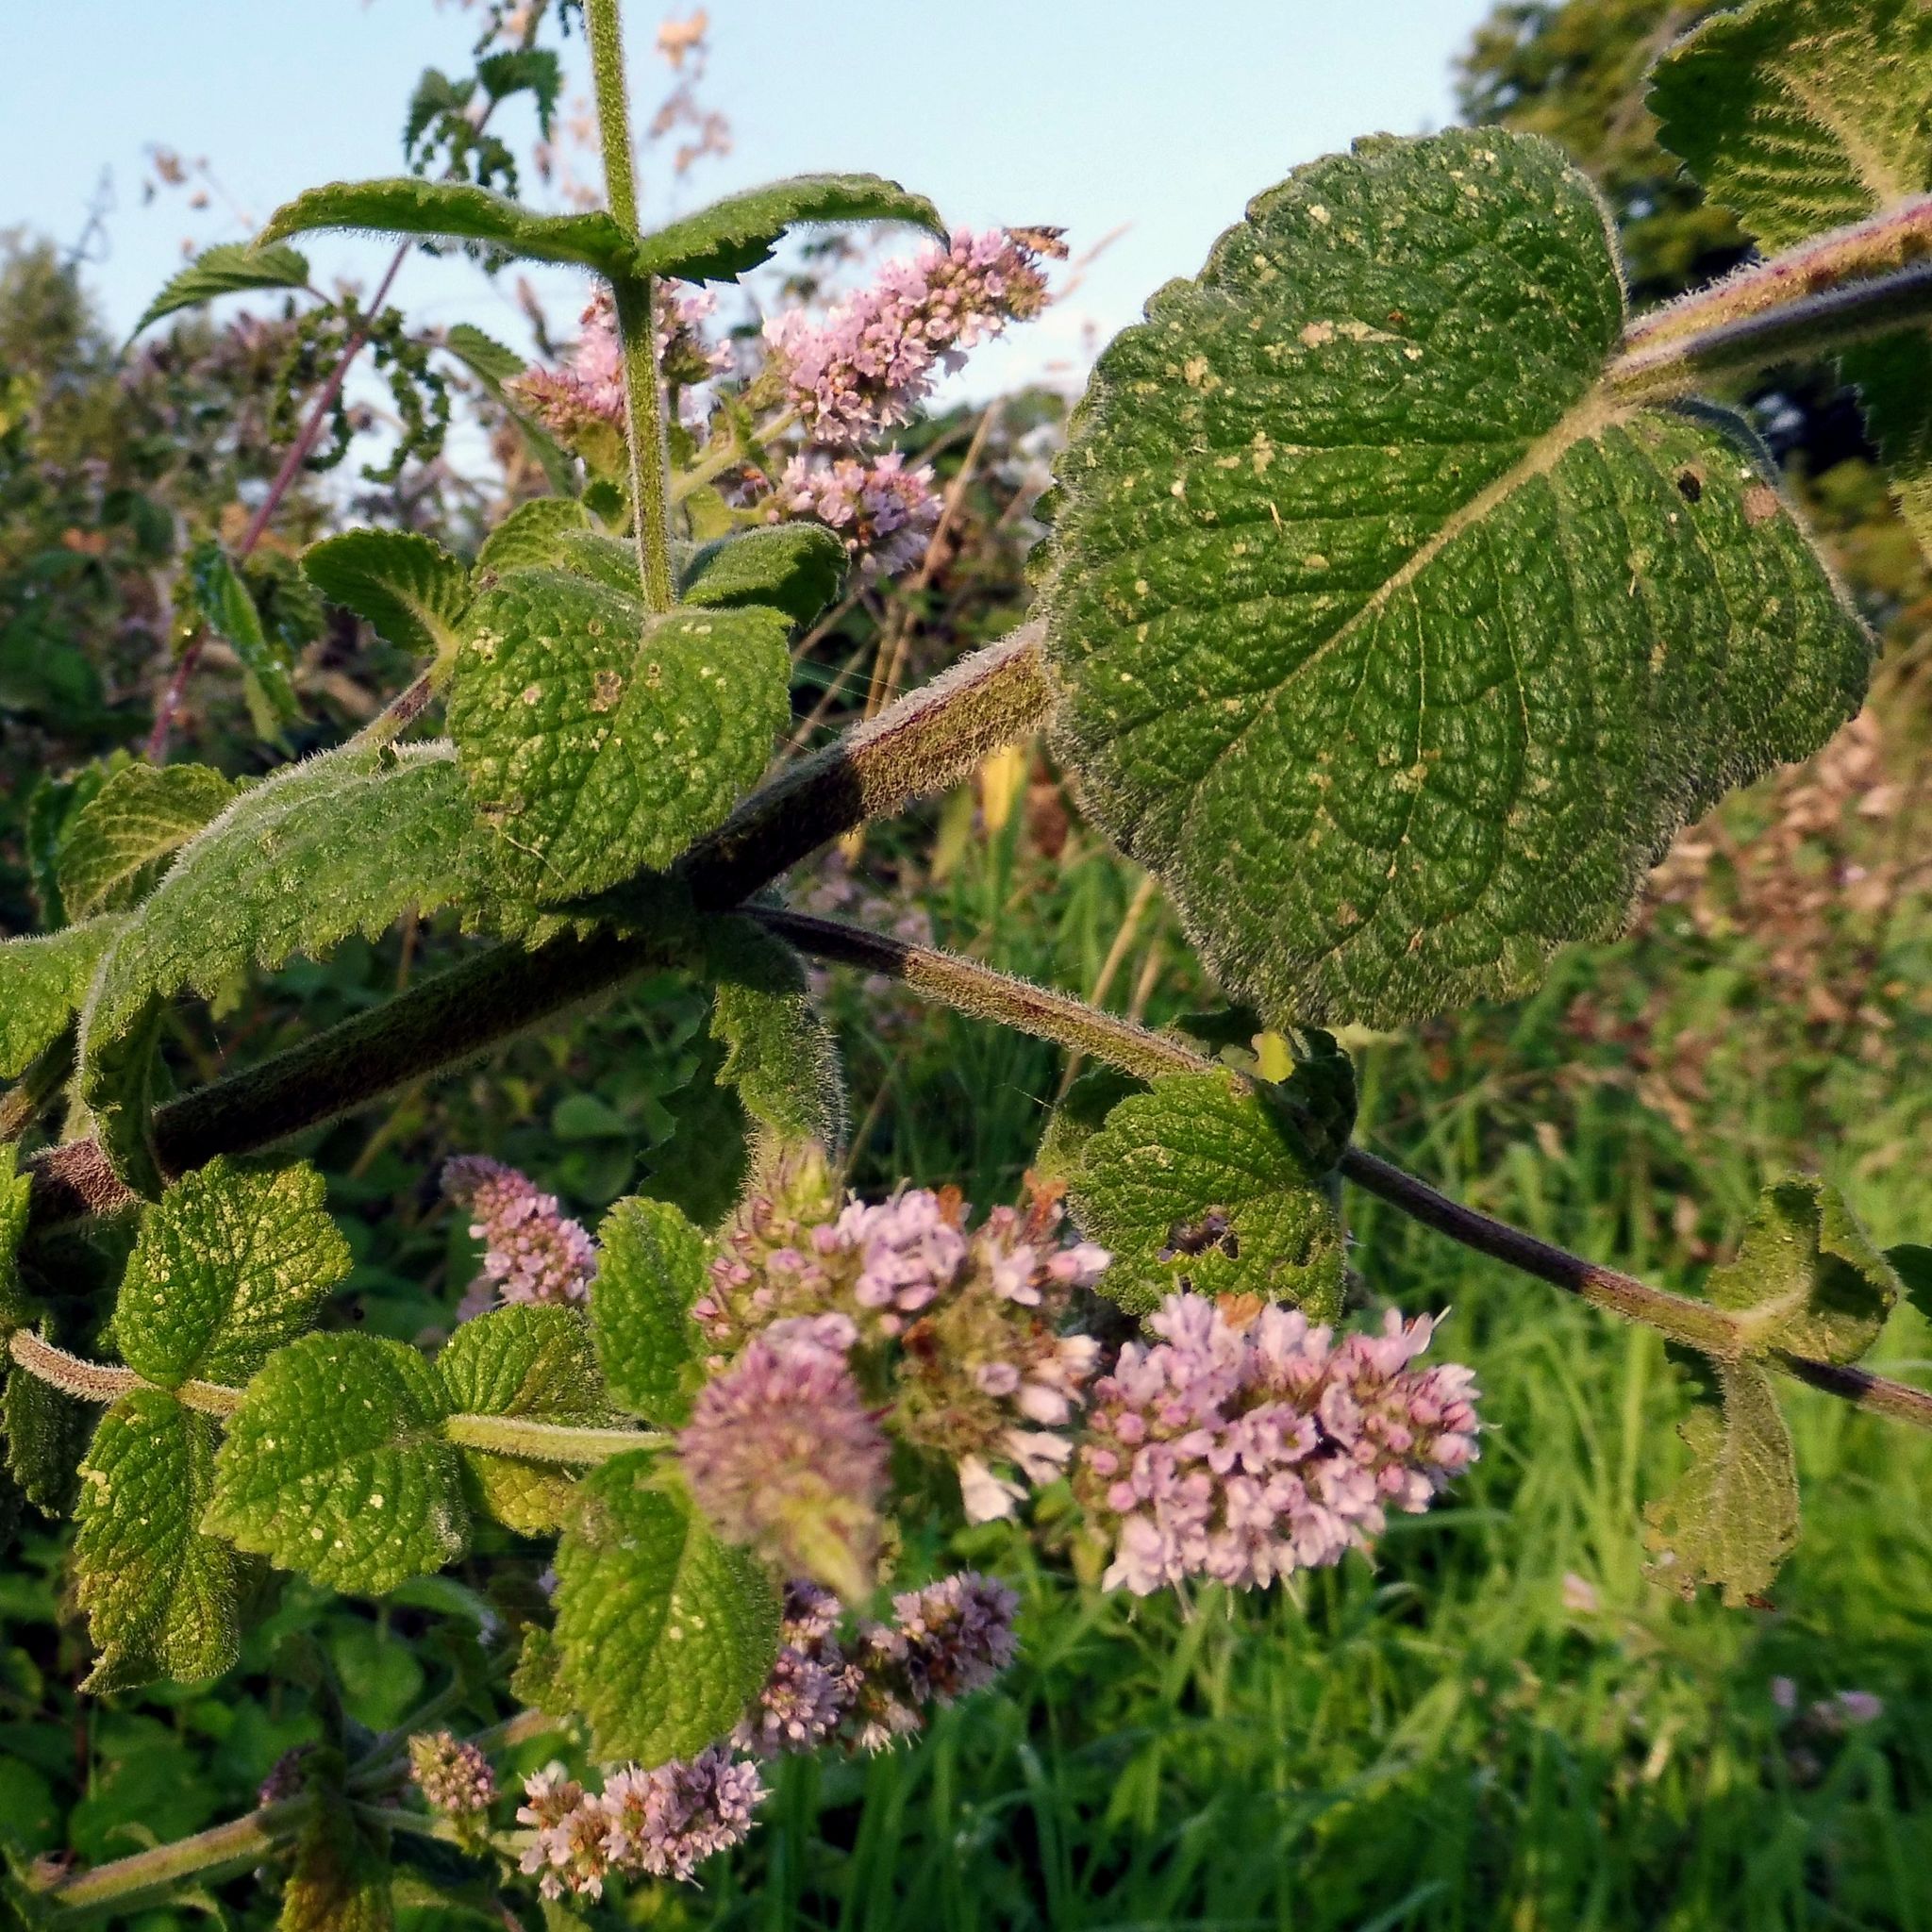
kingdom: Plantae
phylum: Tracheophyta
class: Magnoliopsida
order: Lamiales
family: Lamiaceae
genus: Mentha
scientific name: Mentha villosa
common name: Apple mint
